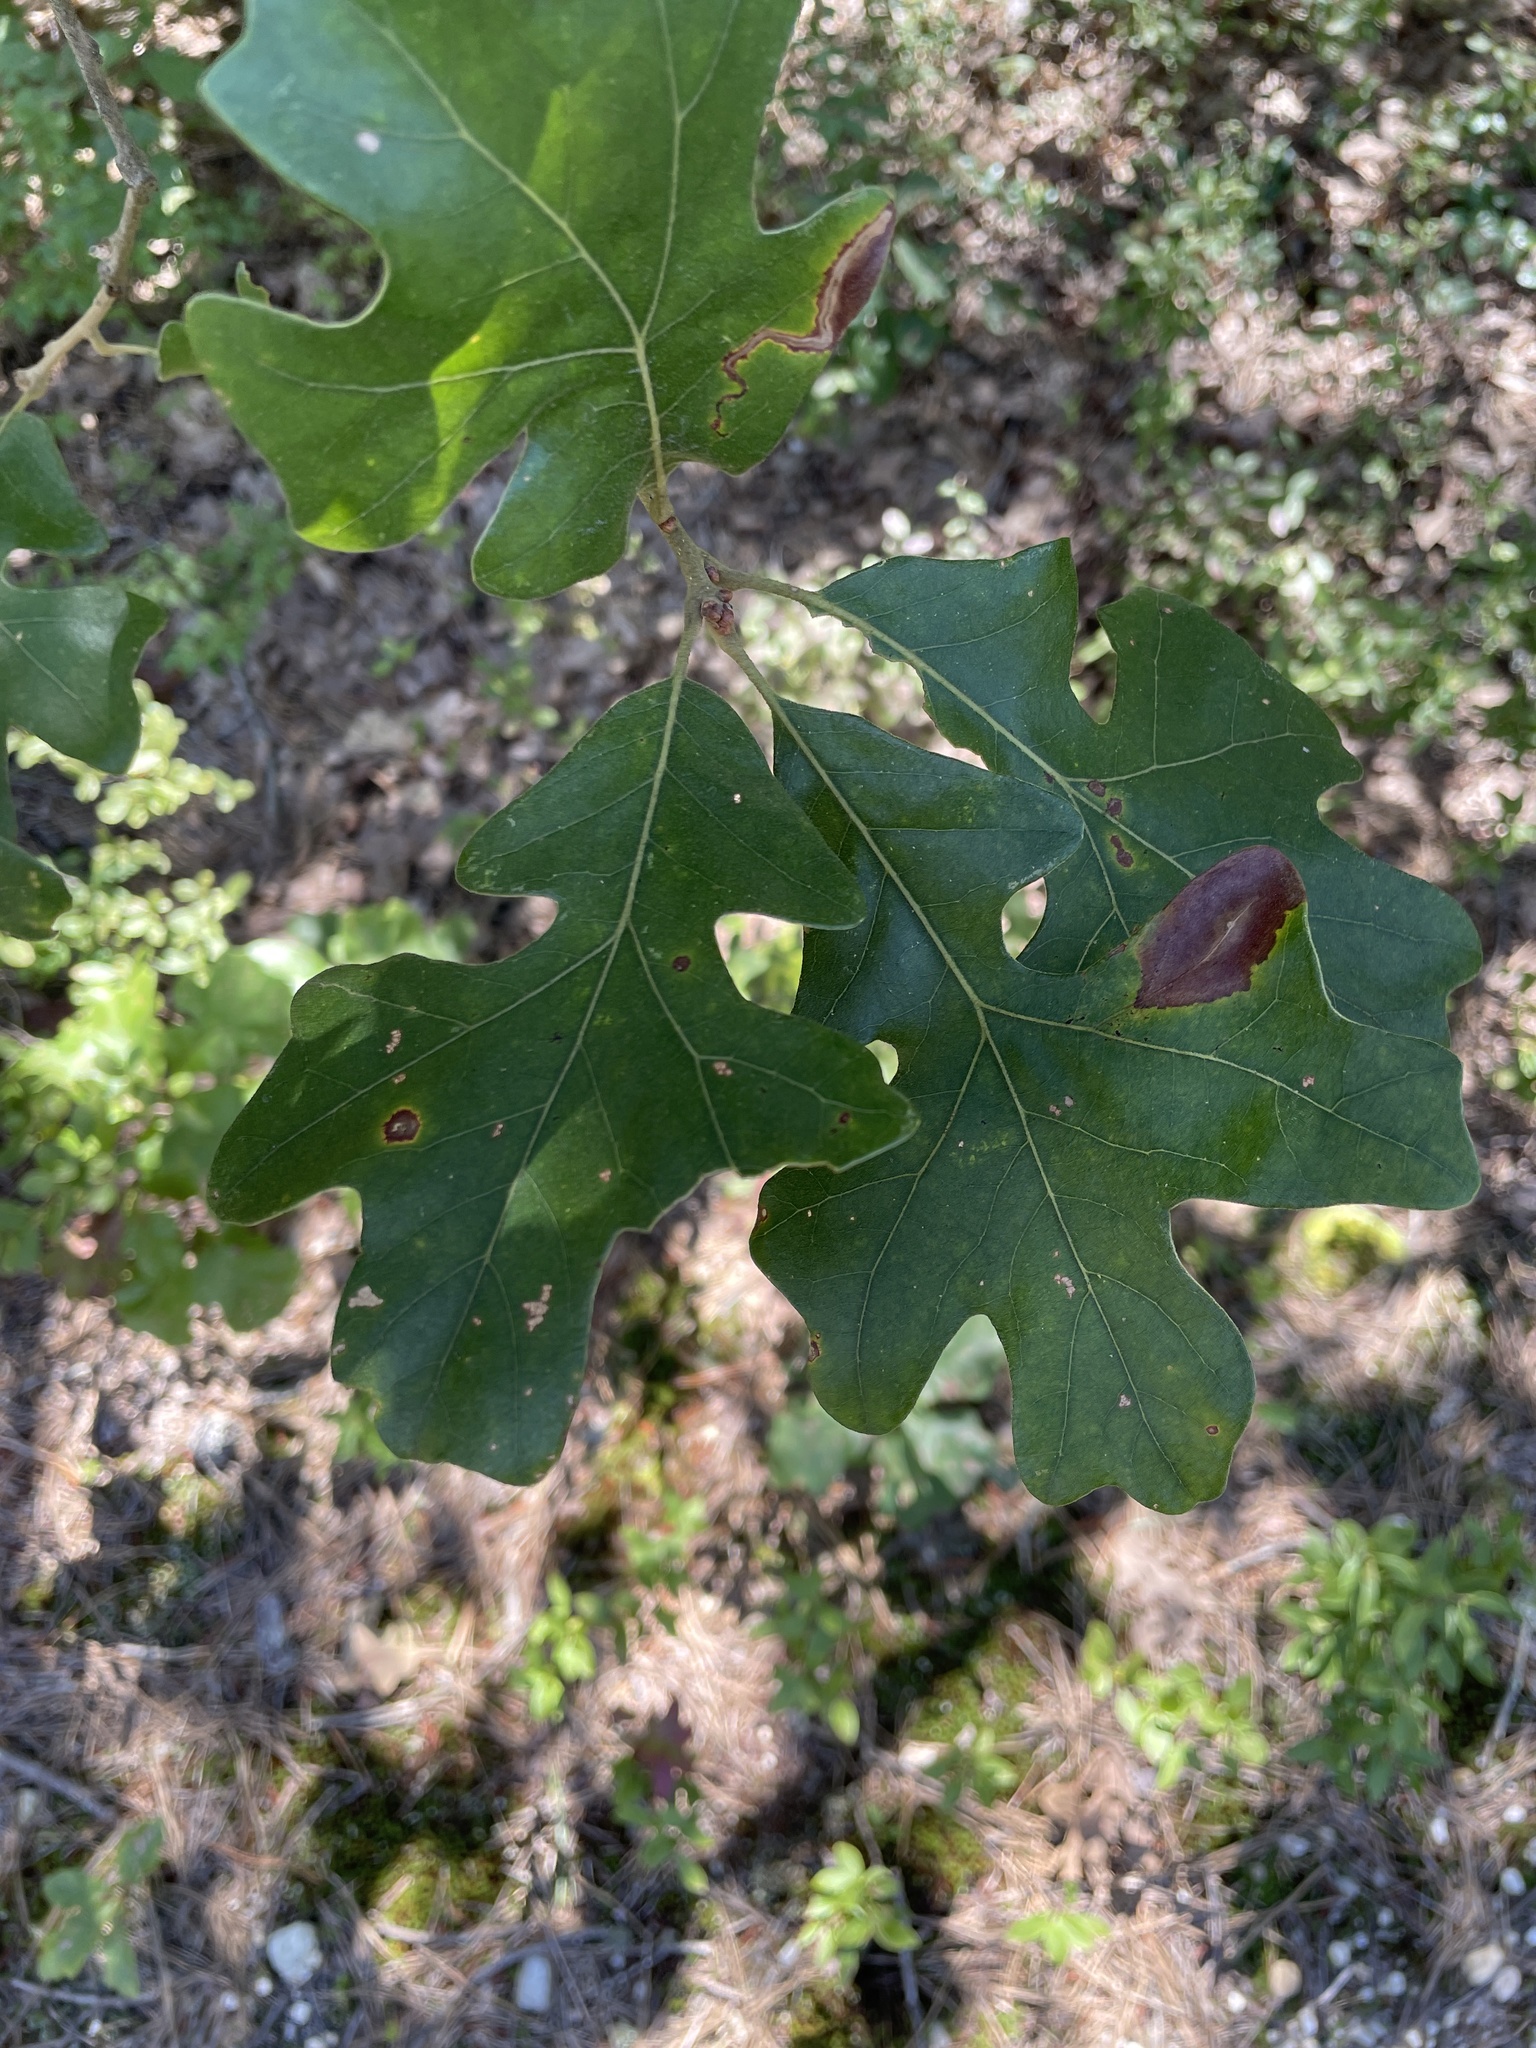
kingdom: Plantae
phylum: Tracheophyta
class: Magnoliopsida
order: Fagales
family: Fagaceae
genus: Quercus
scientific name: Quercus stellata
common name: Post oak
